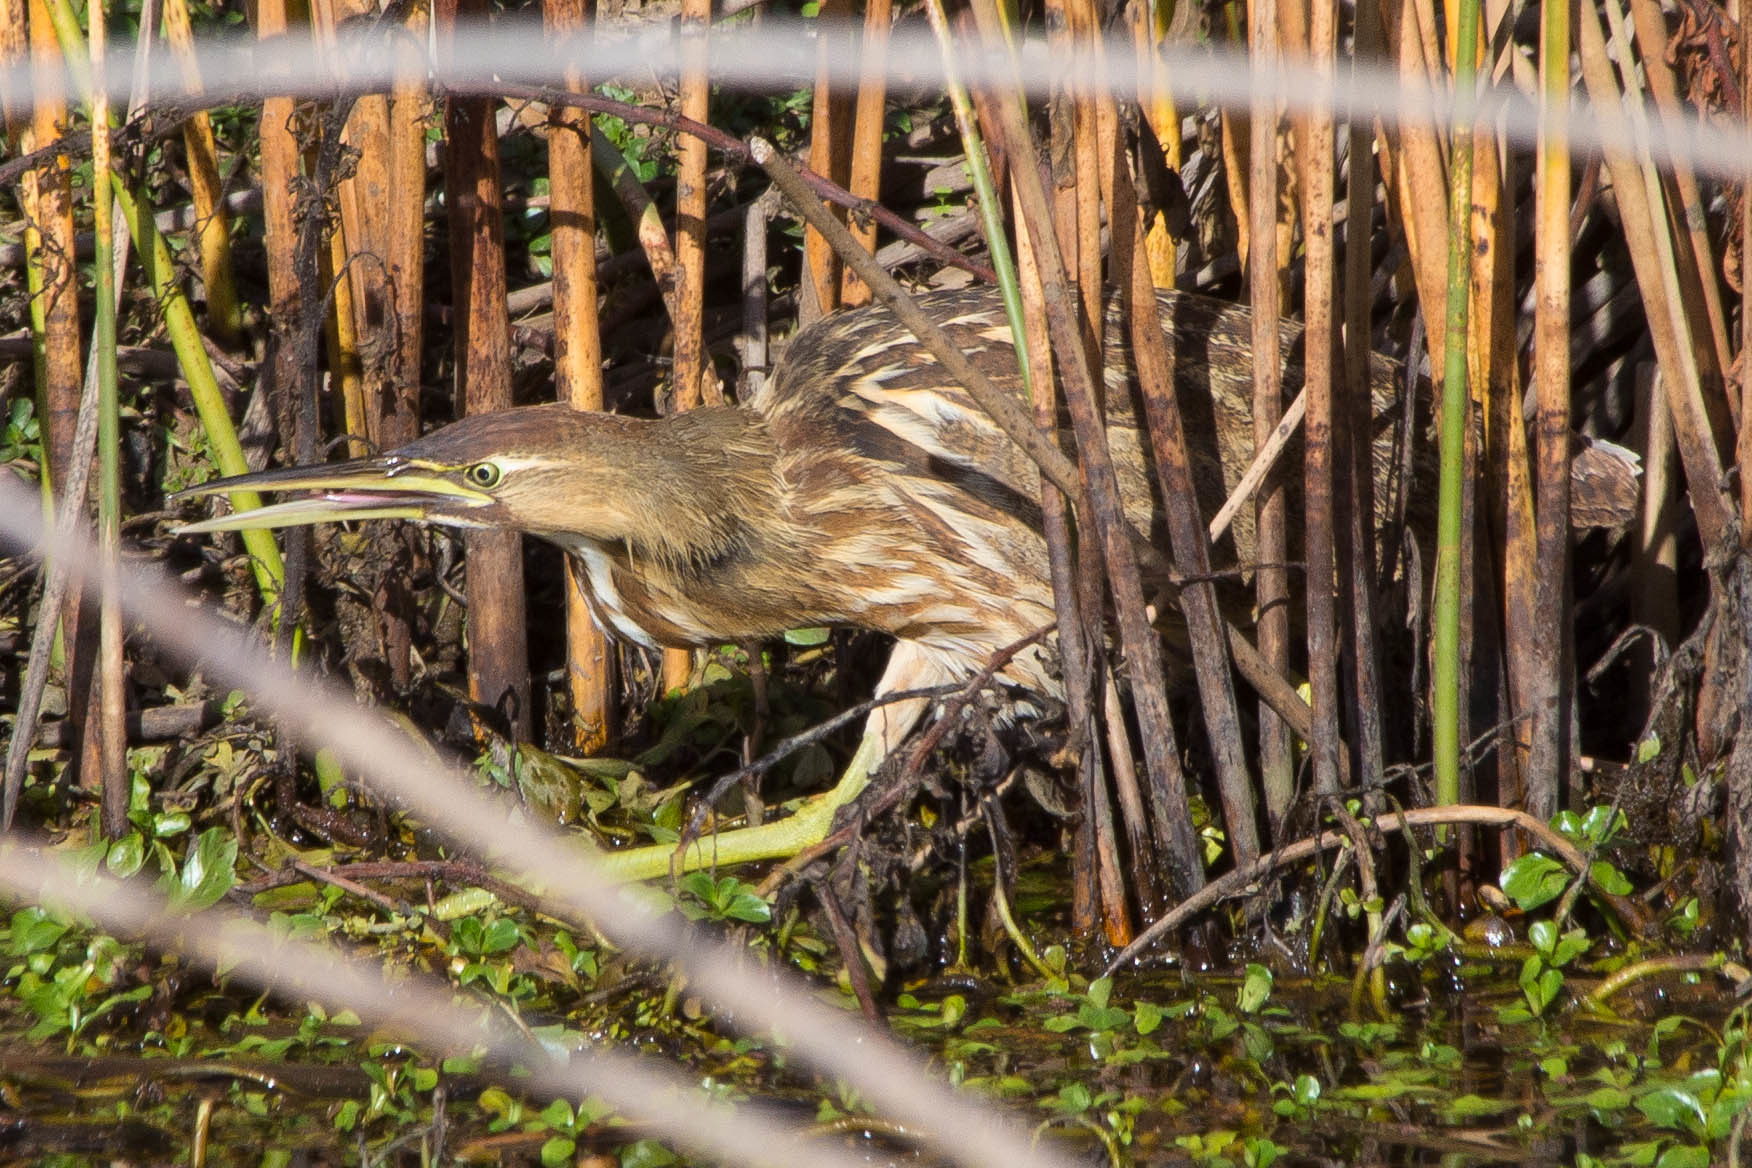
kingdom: Animalia
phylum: Chordata
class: Aves
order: Pelecaniformes
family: Ardeidae
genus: Botaurus
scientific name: Botaurus lentiginosus
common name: American bittern
